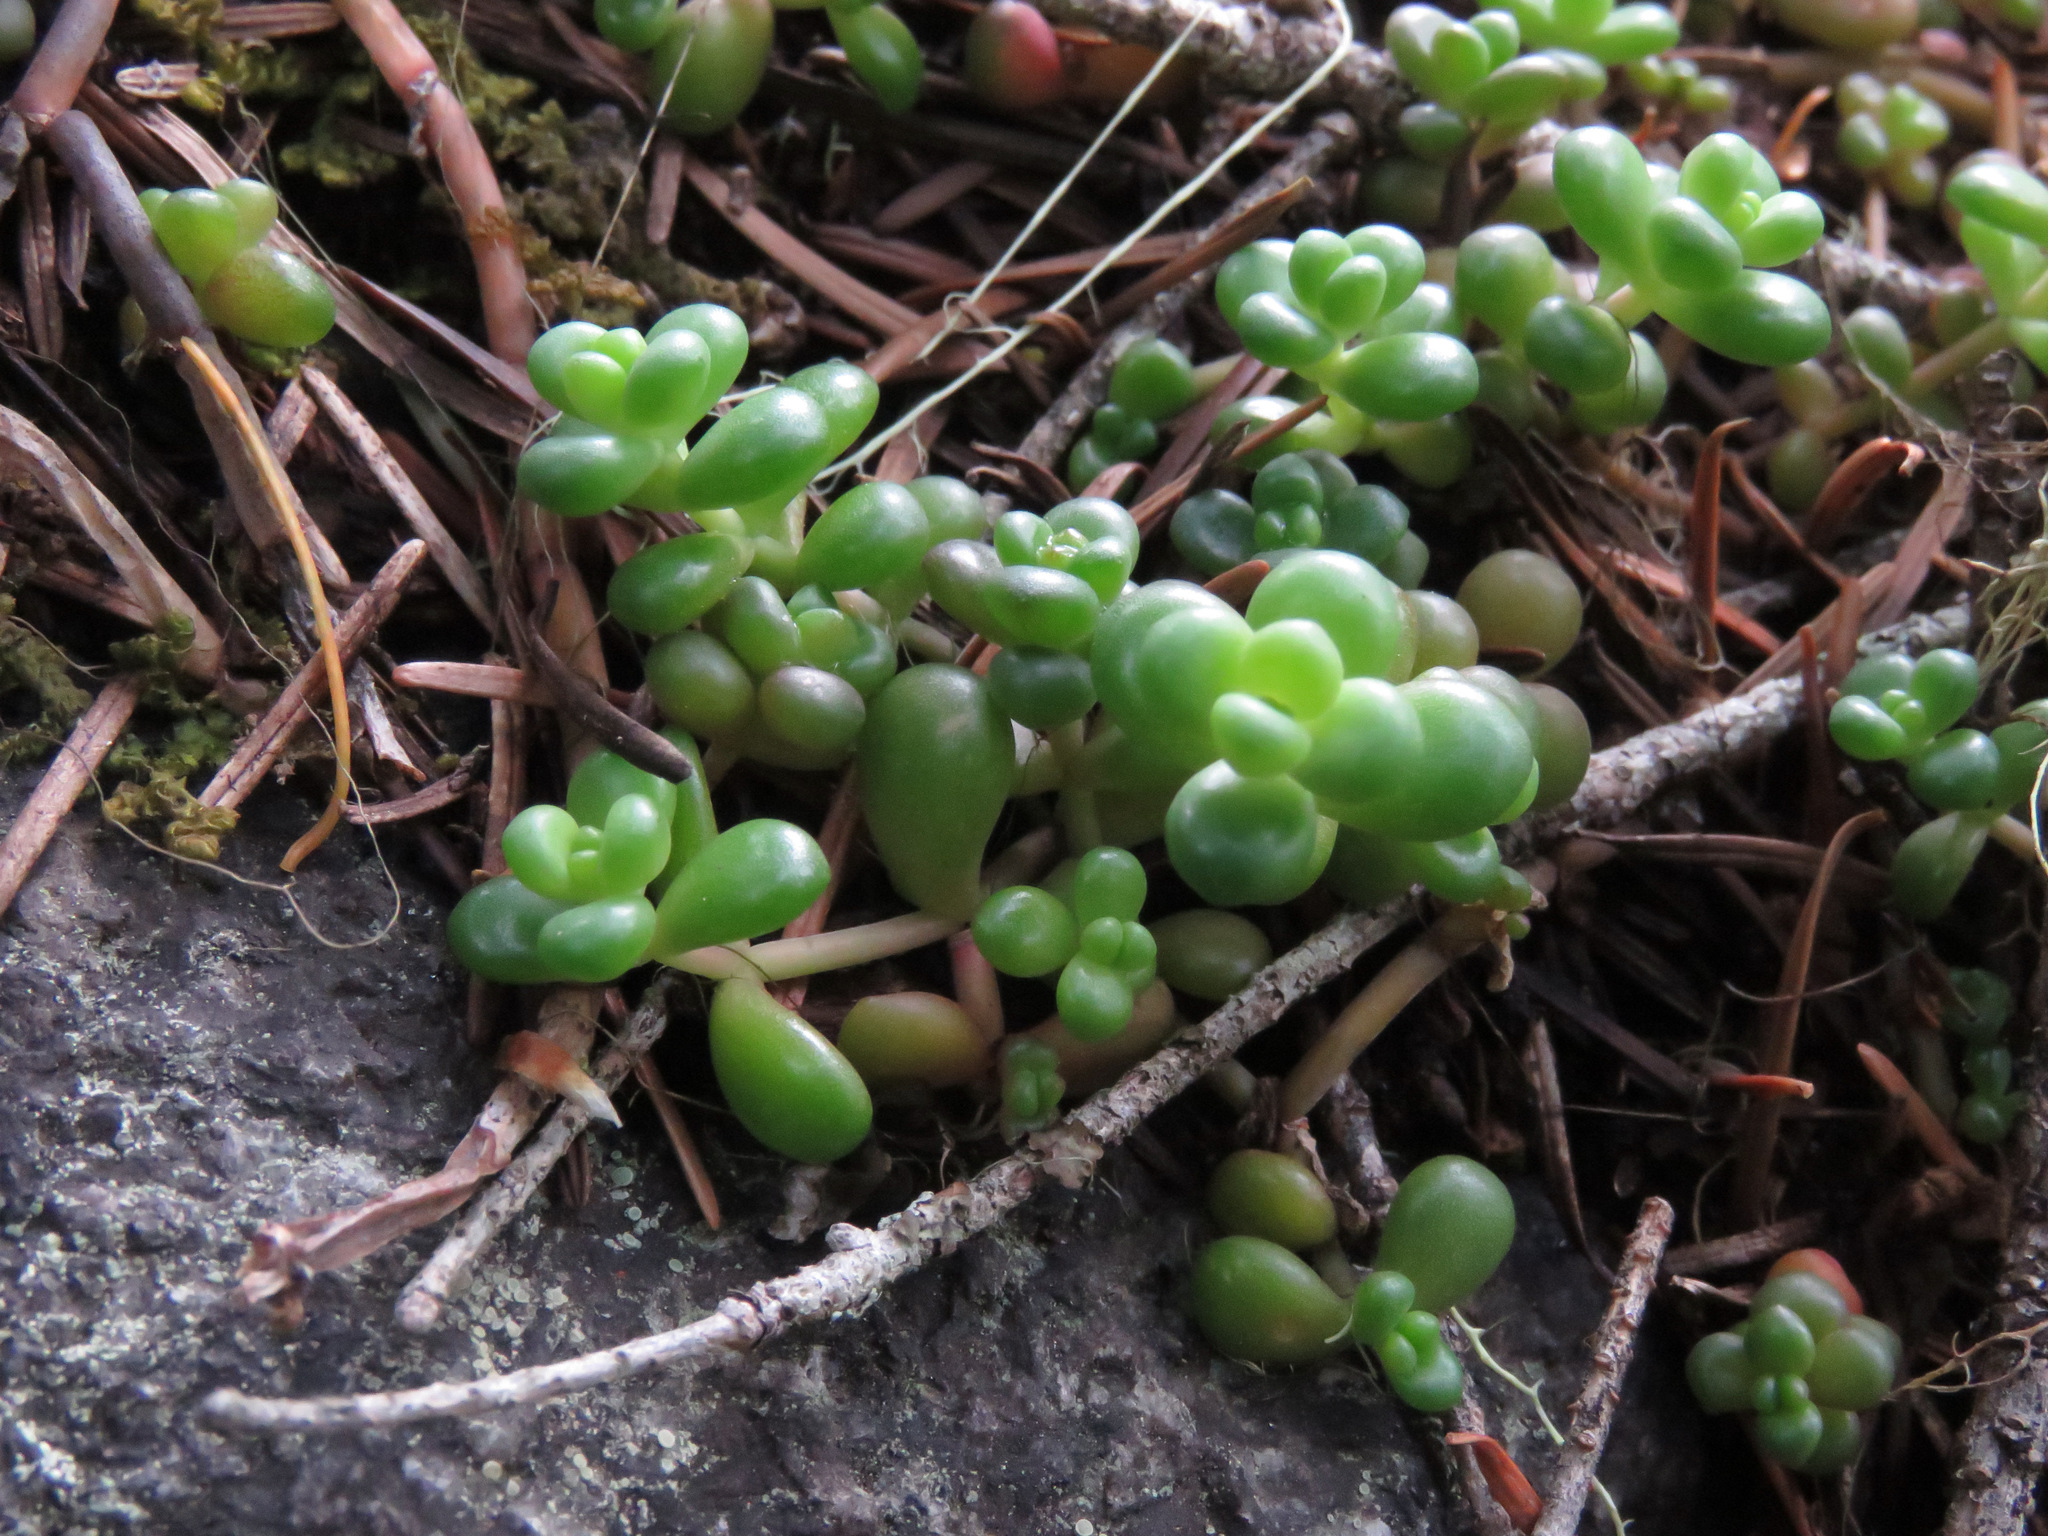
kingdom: Plantae
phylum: Tracheophyta
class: Magnoliopsida
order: Saxifragales
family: Crassulaceae
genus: Sedum
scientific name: Sedum divergens
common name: Cascade stonecrop
